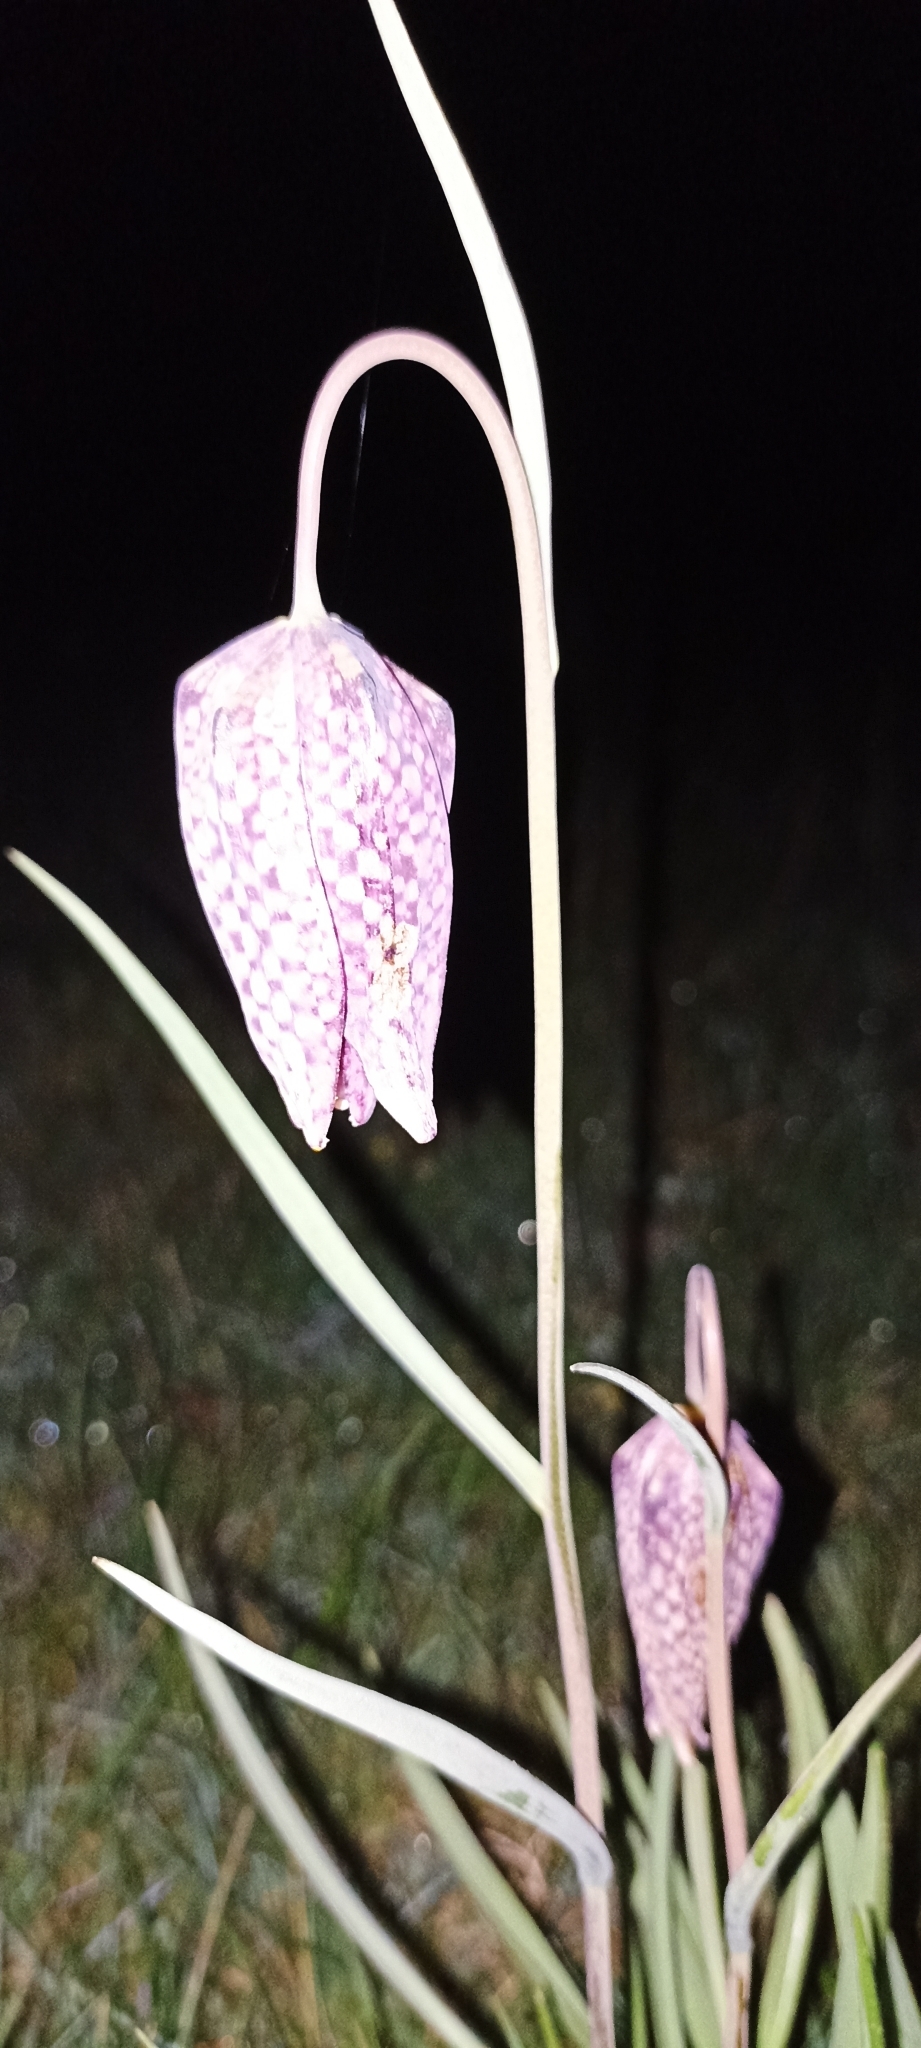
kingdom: Plantae
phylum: Tracheophyta
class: Liliopsida
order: Liliales
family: Liliaceae
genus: Fritillaria
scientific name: Fritillaria meleagris
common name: Fritillary
